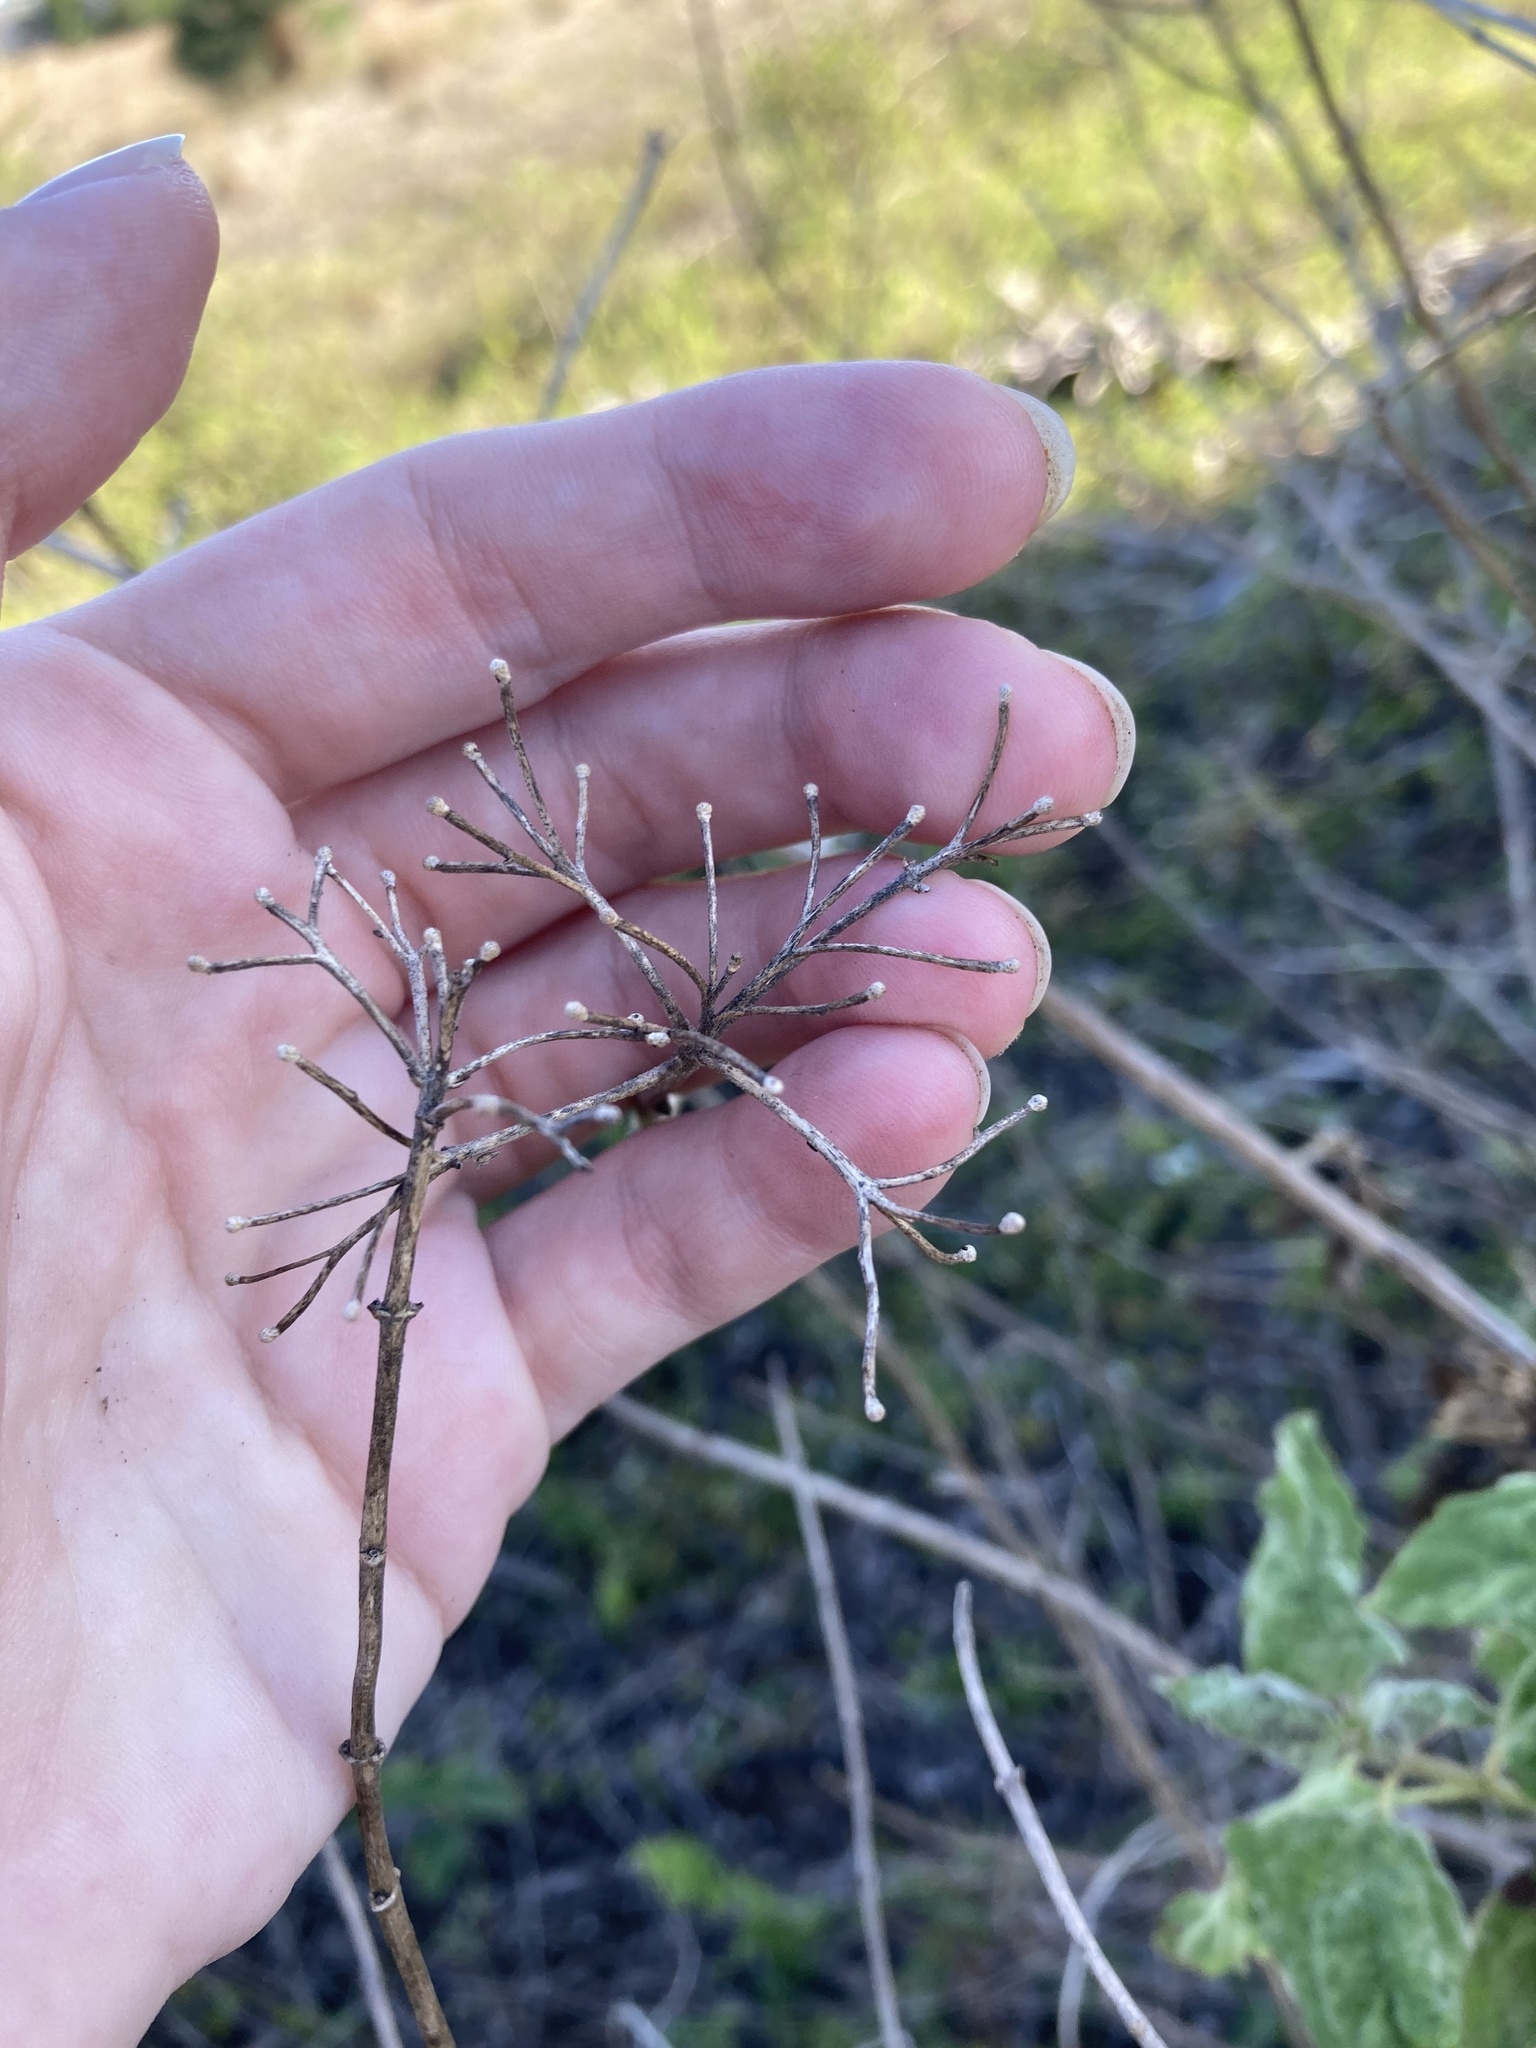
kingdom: Plantae
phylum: Tracheophyta
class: Magnoliopsida
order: Asterales
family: Asteraceae
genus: Chromolaena
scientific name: Chromolaena odorata
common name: Siamweed
